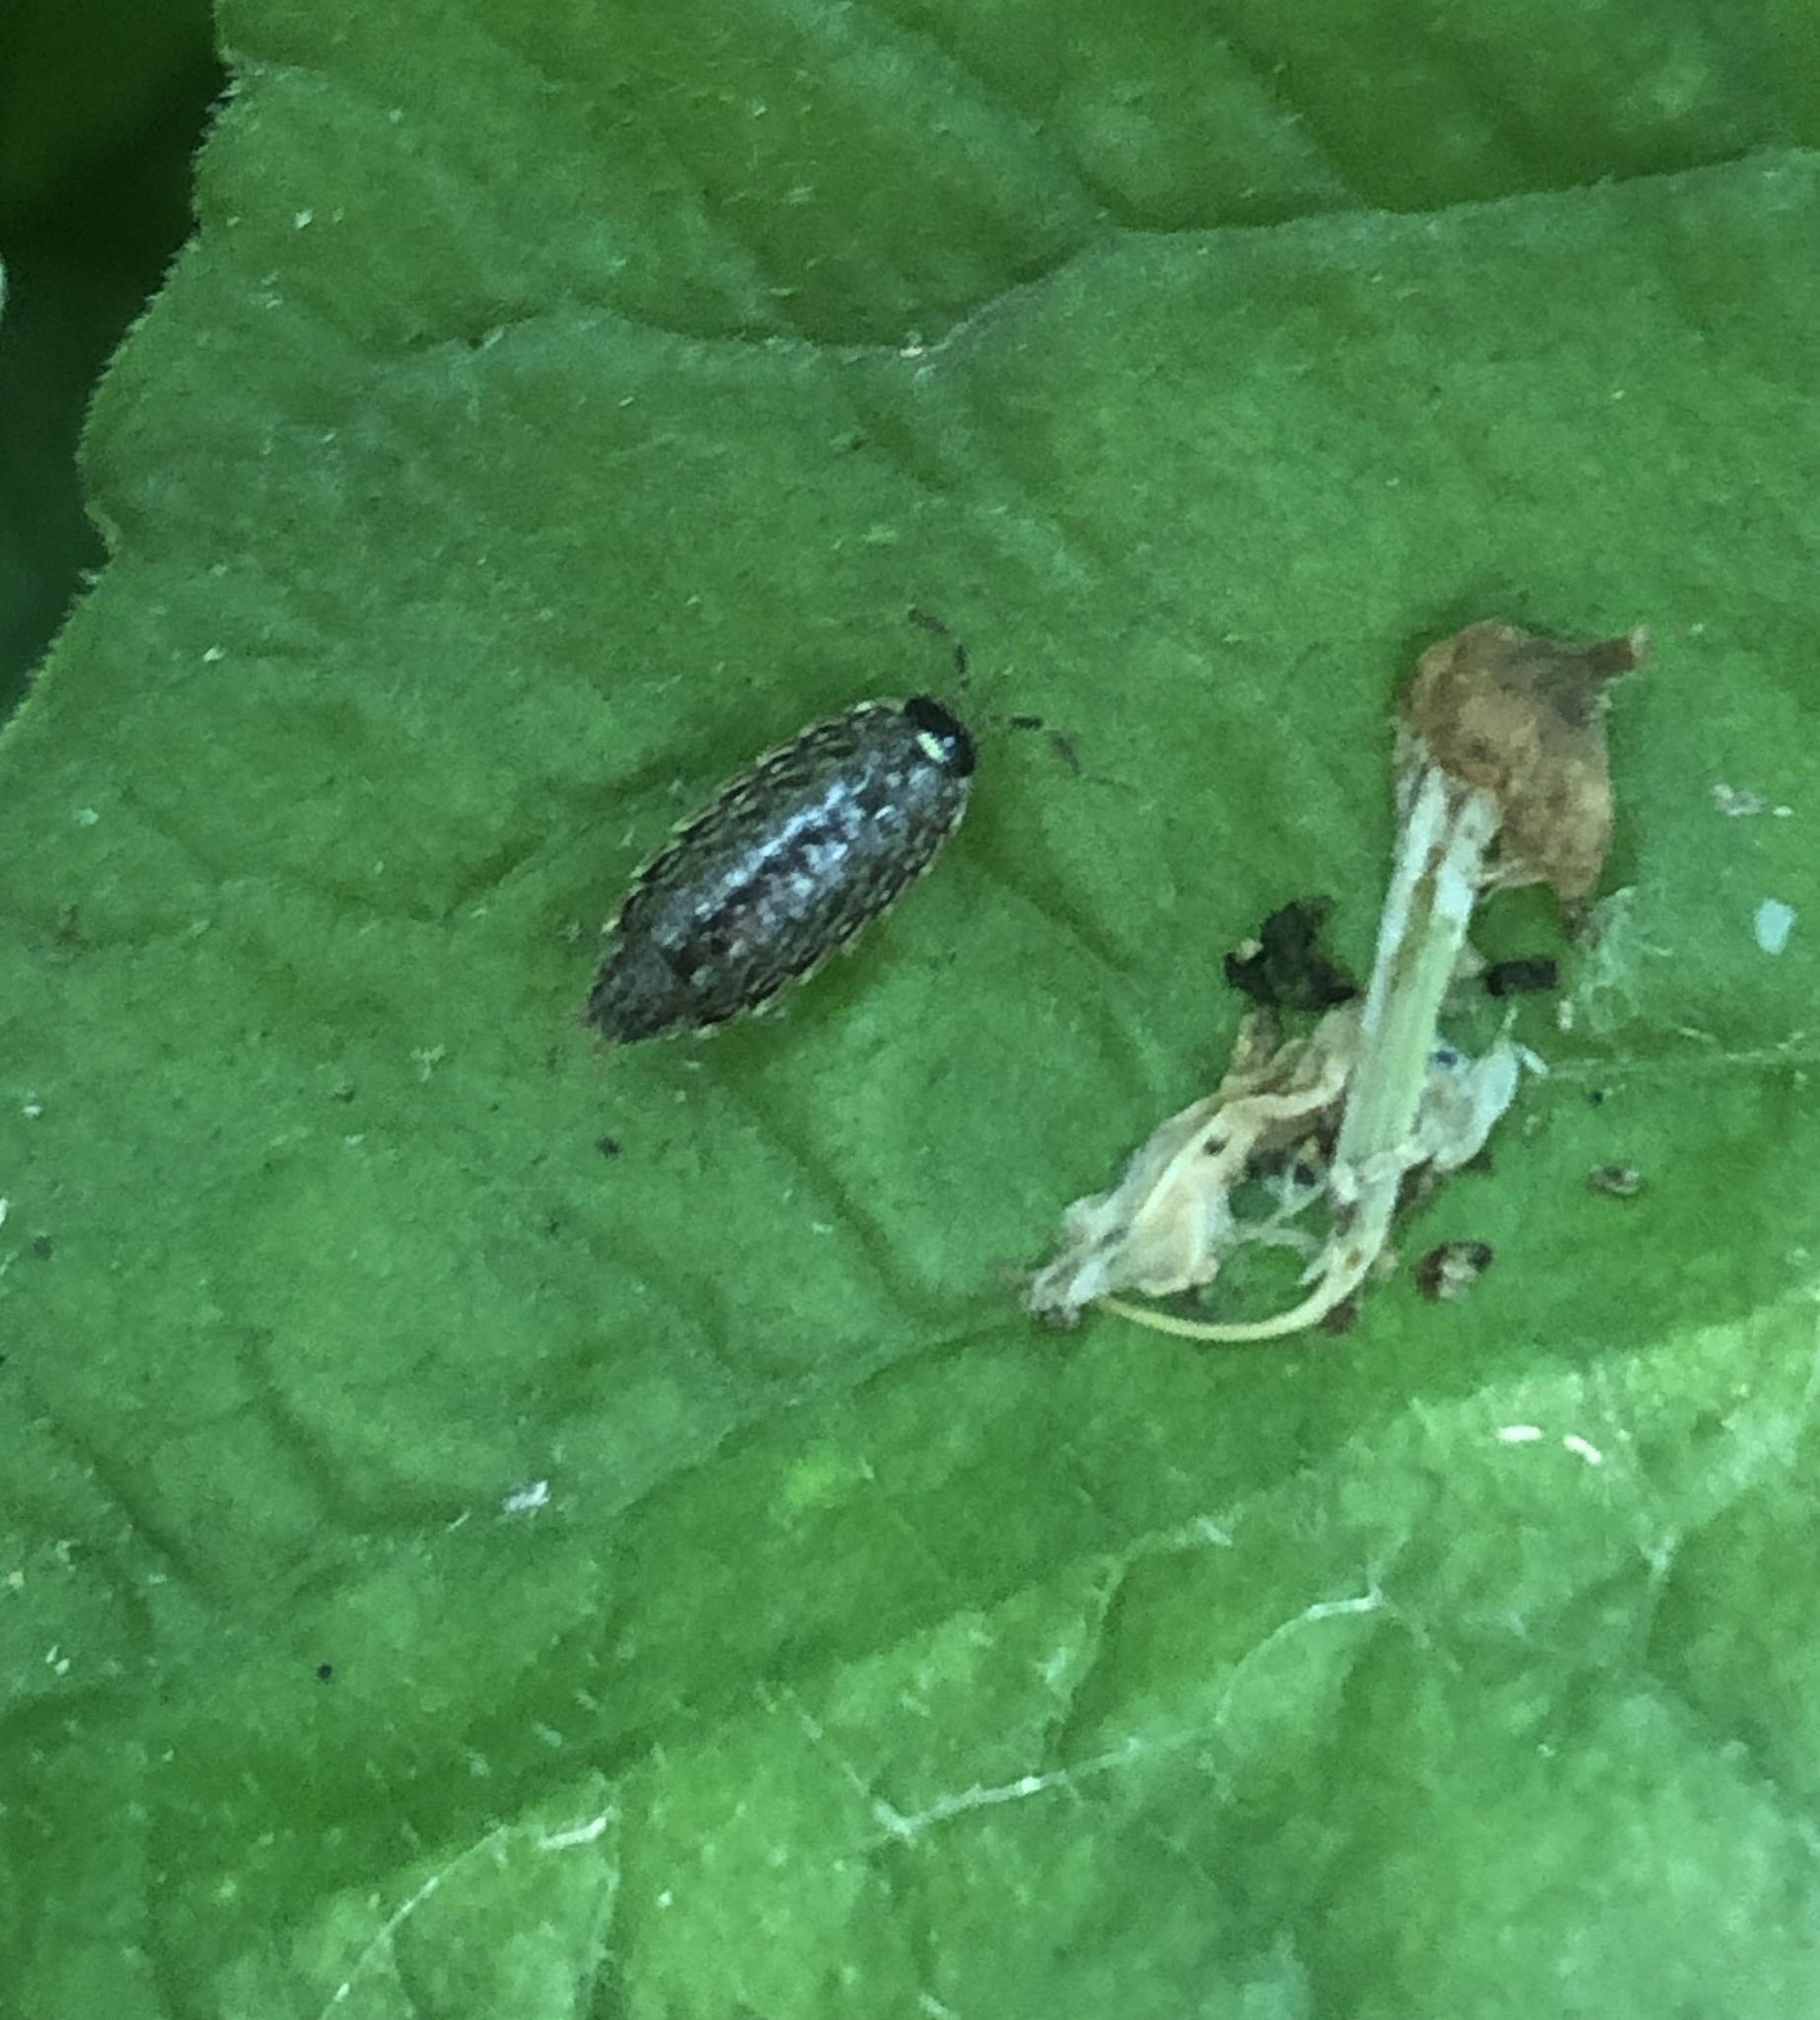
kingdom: Animalia
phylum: Arthropoda
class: Malacostraca
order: Isopoda
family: Philosciidae
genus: Philoscia
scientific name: Philoscia muscorum
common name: Common striped woodlouse
